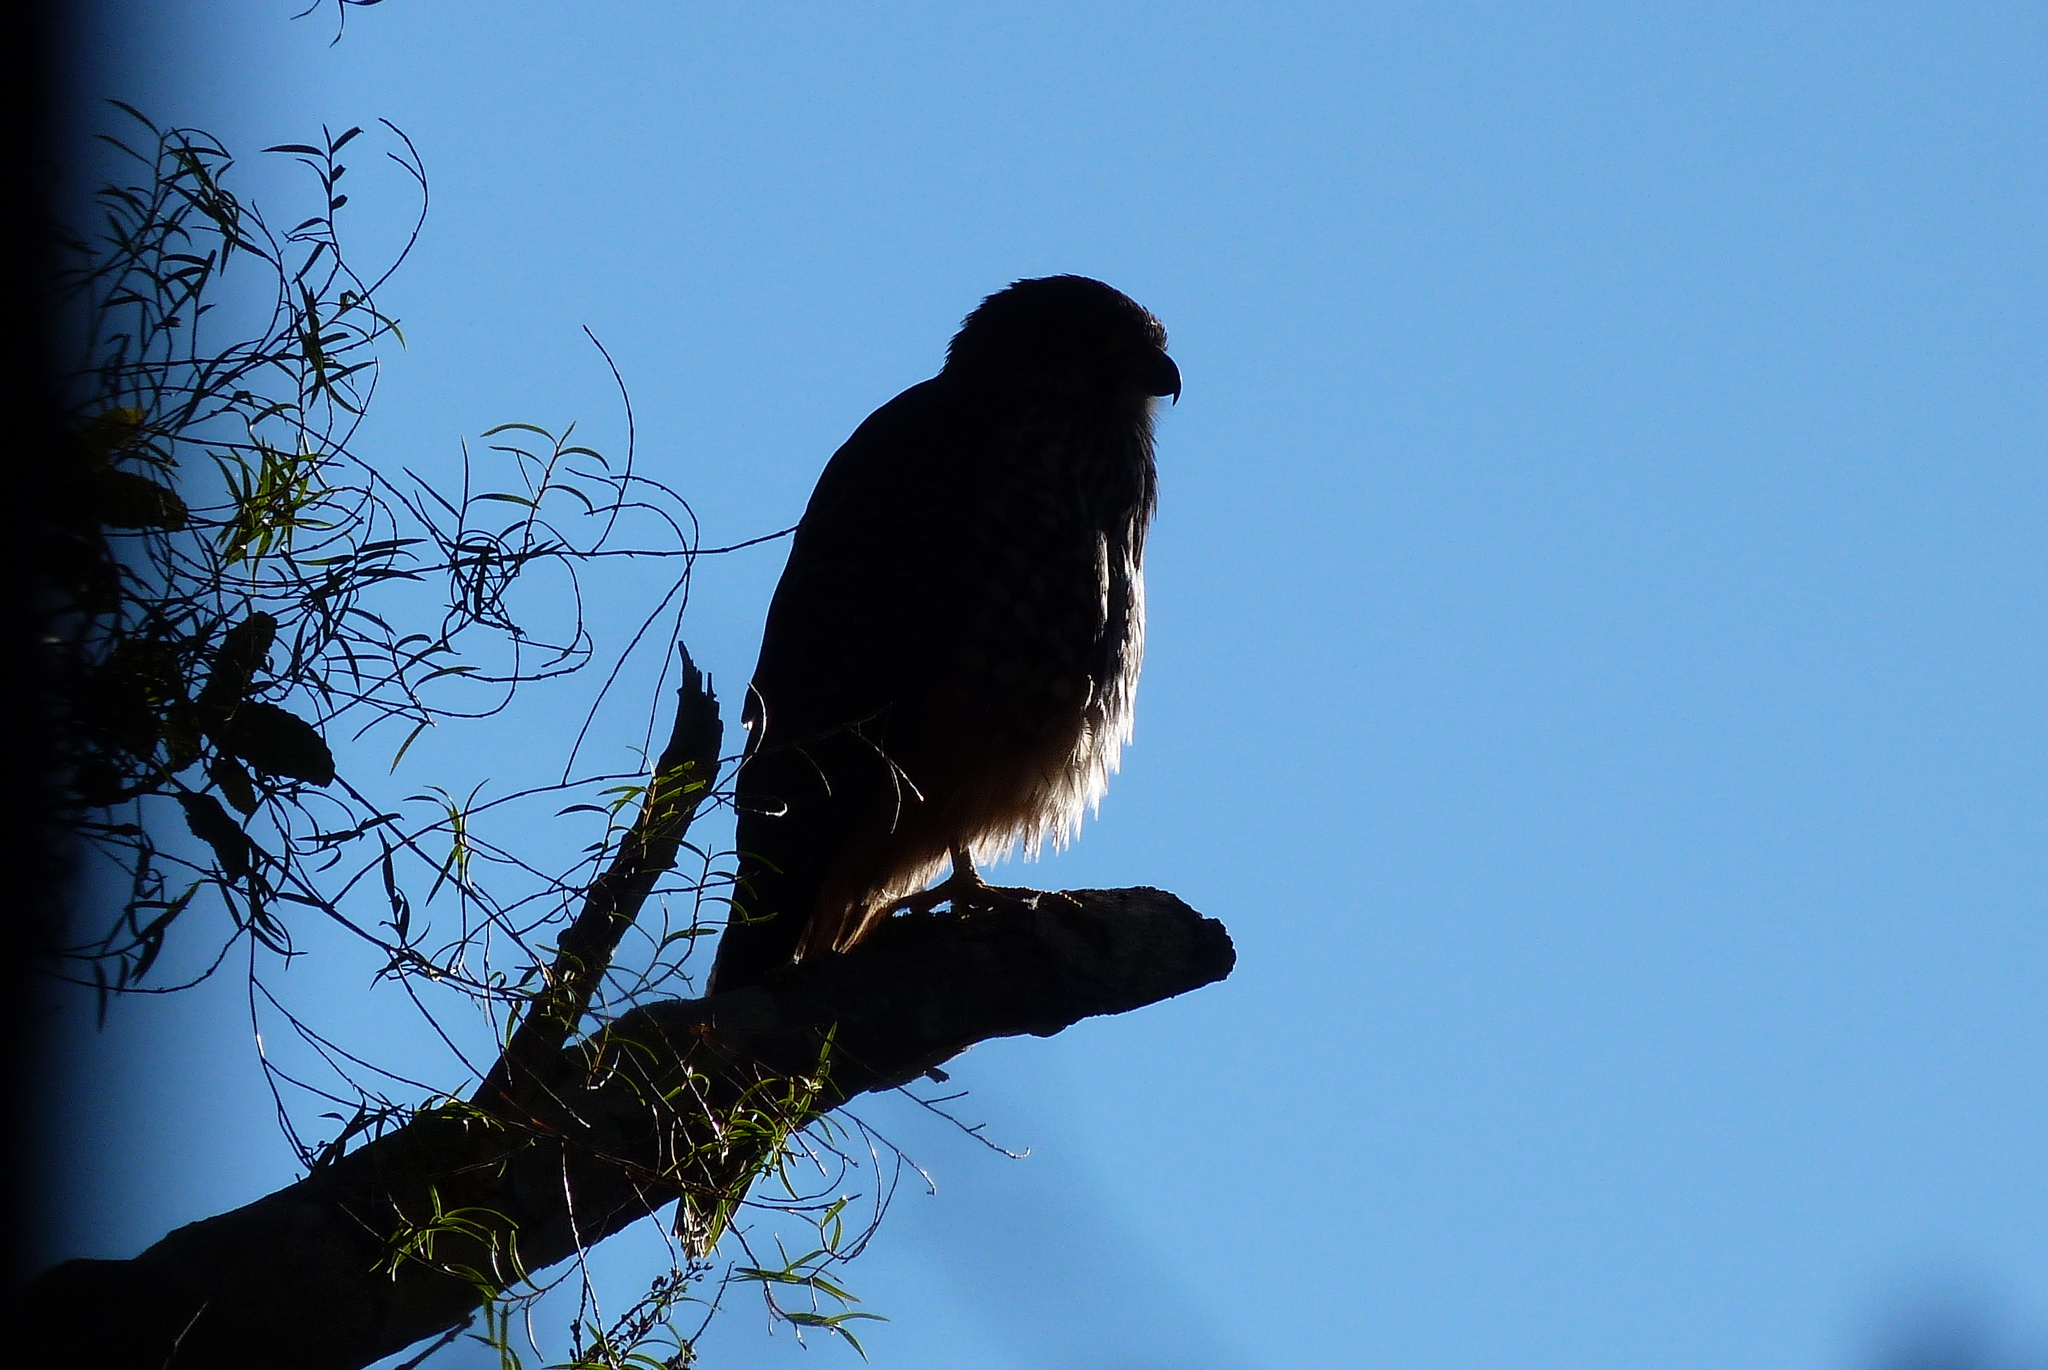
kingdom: Animalia
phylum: Chordata
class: Aves
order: Falconiformes
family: Falconidae
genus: Falco
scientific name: Falco novaeseelandiae
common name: New zealand falcon
